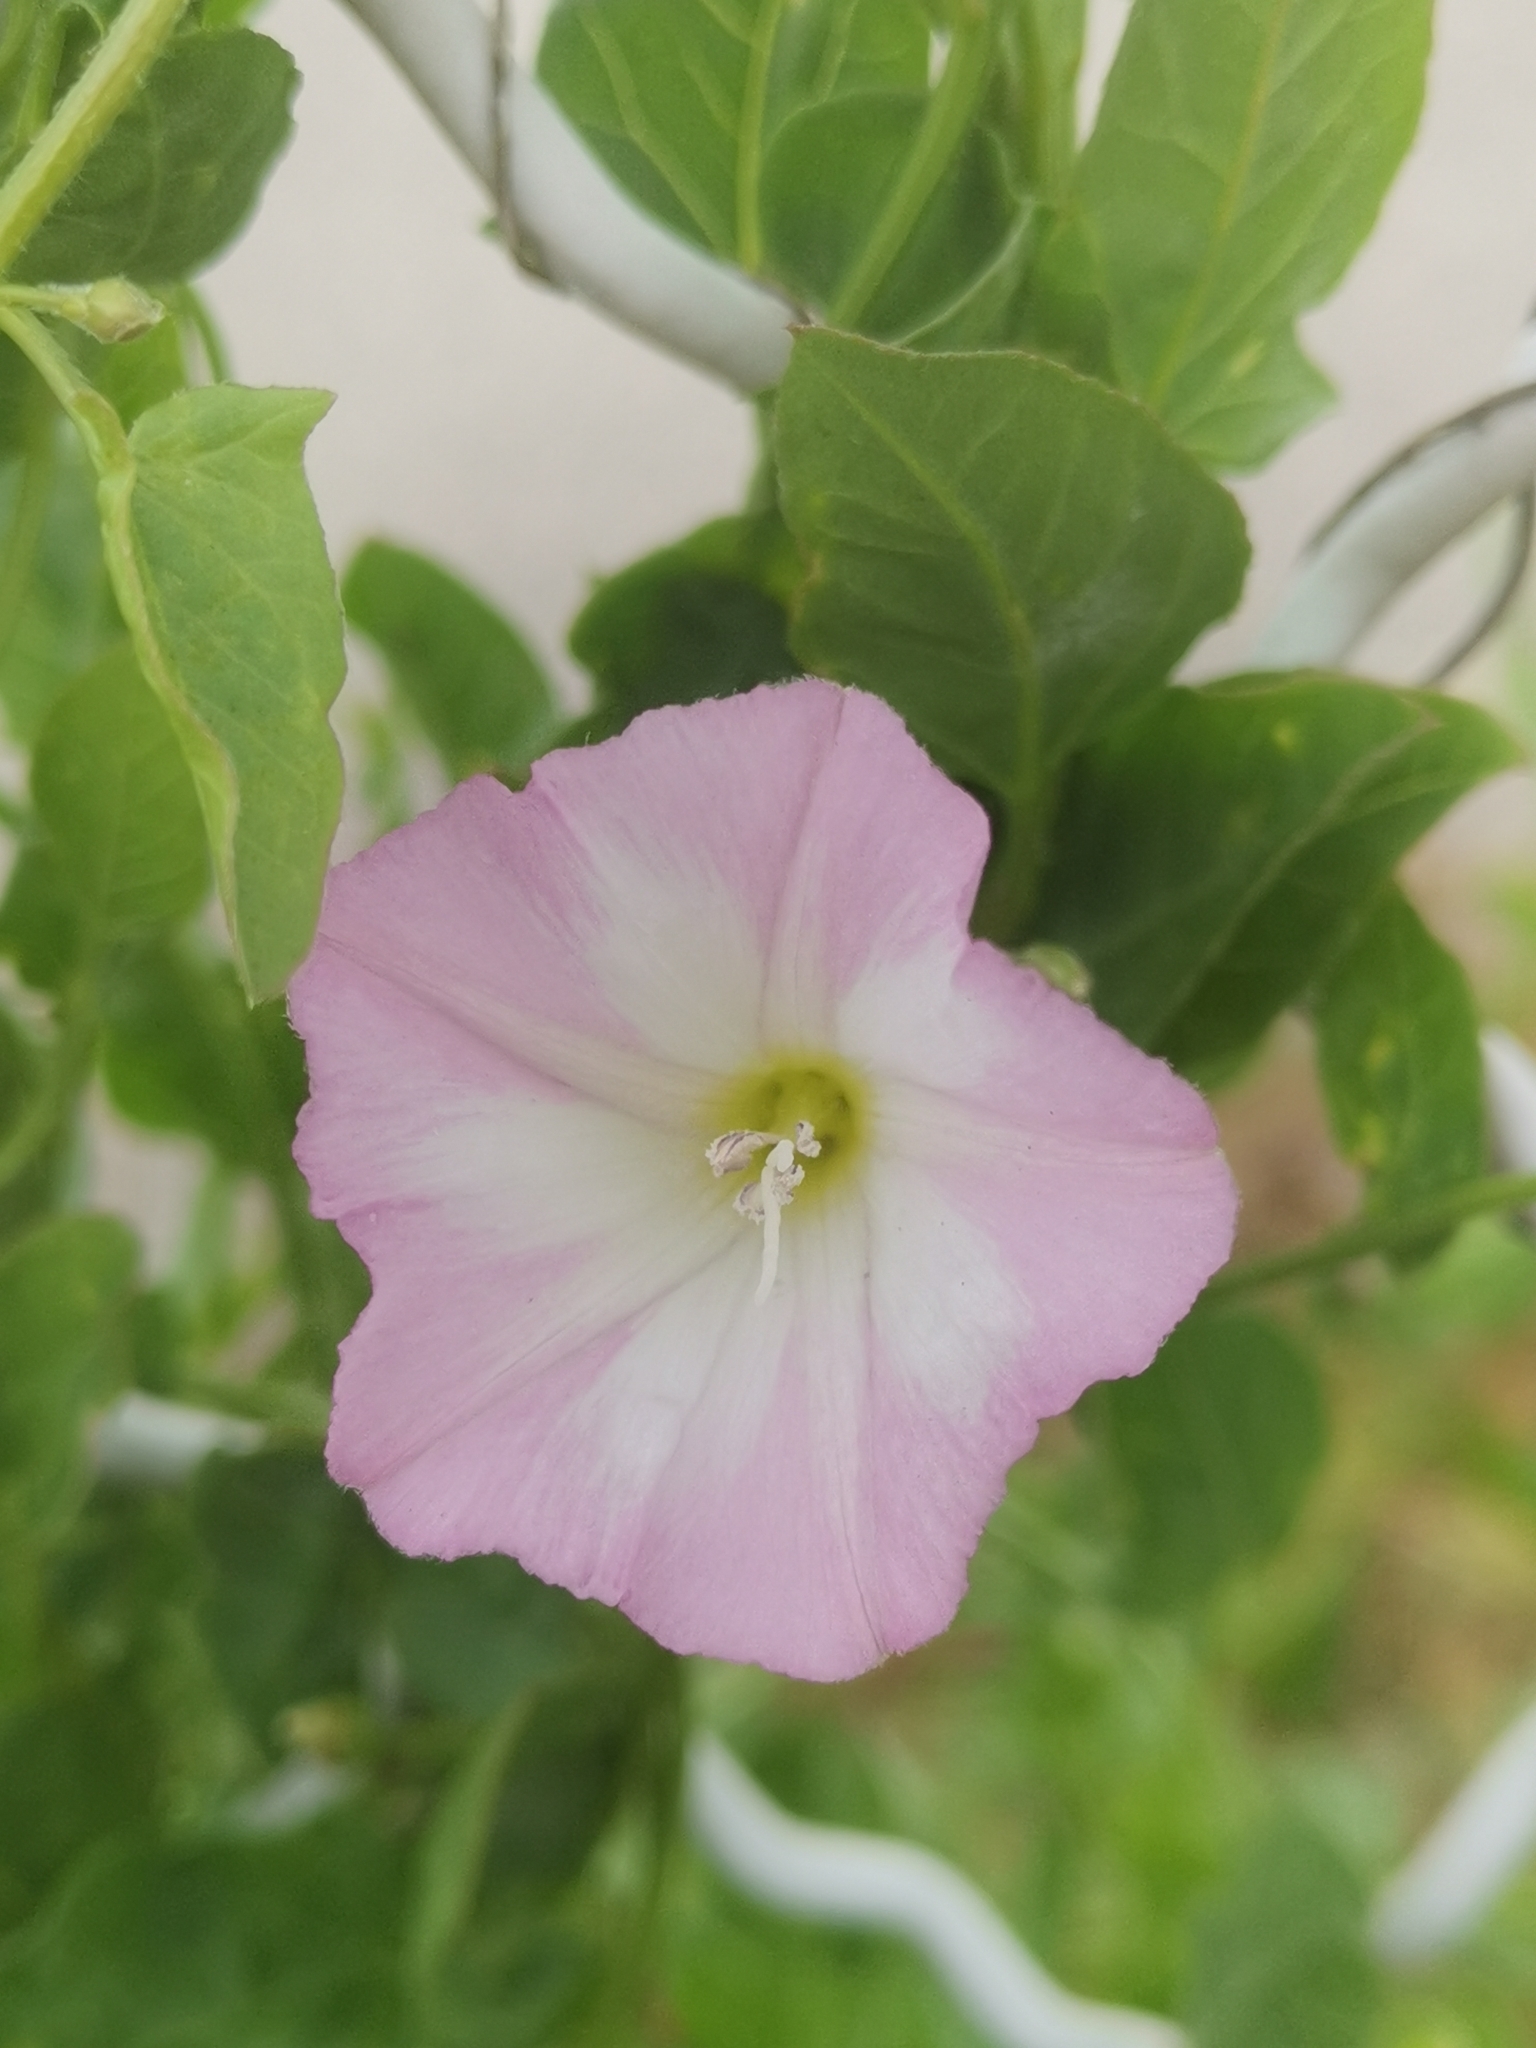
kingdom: Plantae
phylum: Tracheophyta
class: Magnoliopsida
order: Solanales
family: Convolvulaceae
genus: Convolvulus
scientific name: Convolvulus arvensis
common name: Field bindweed
